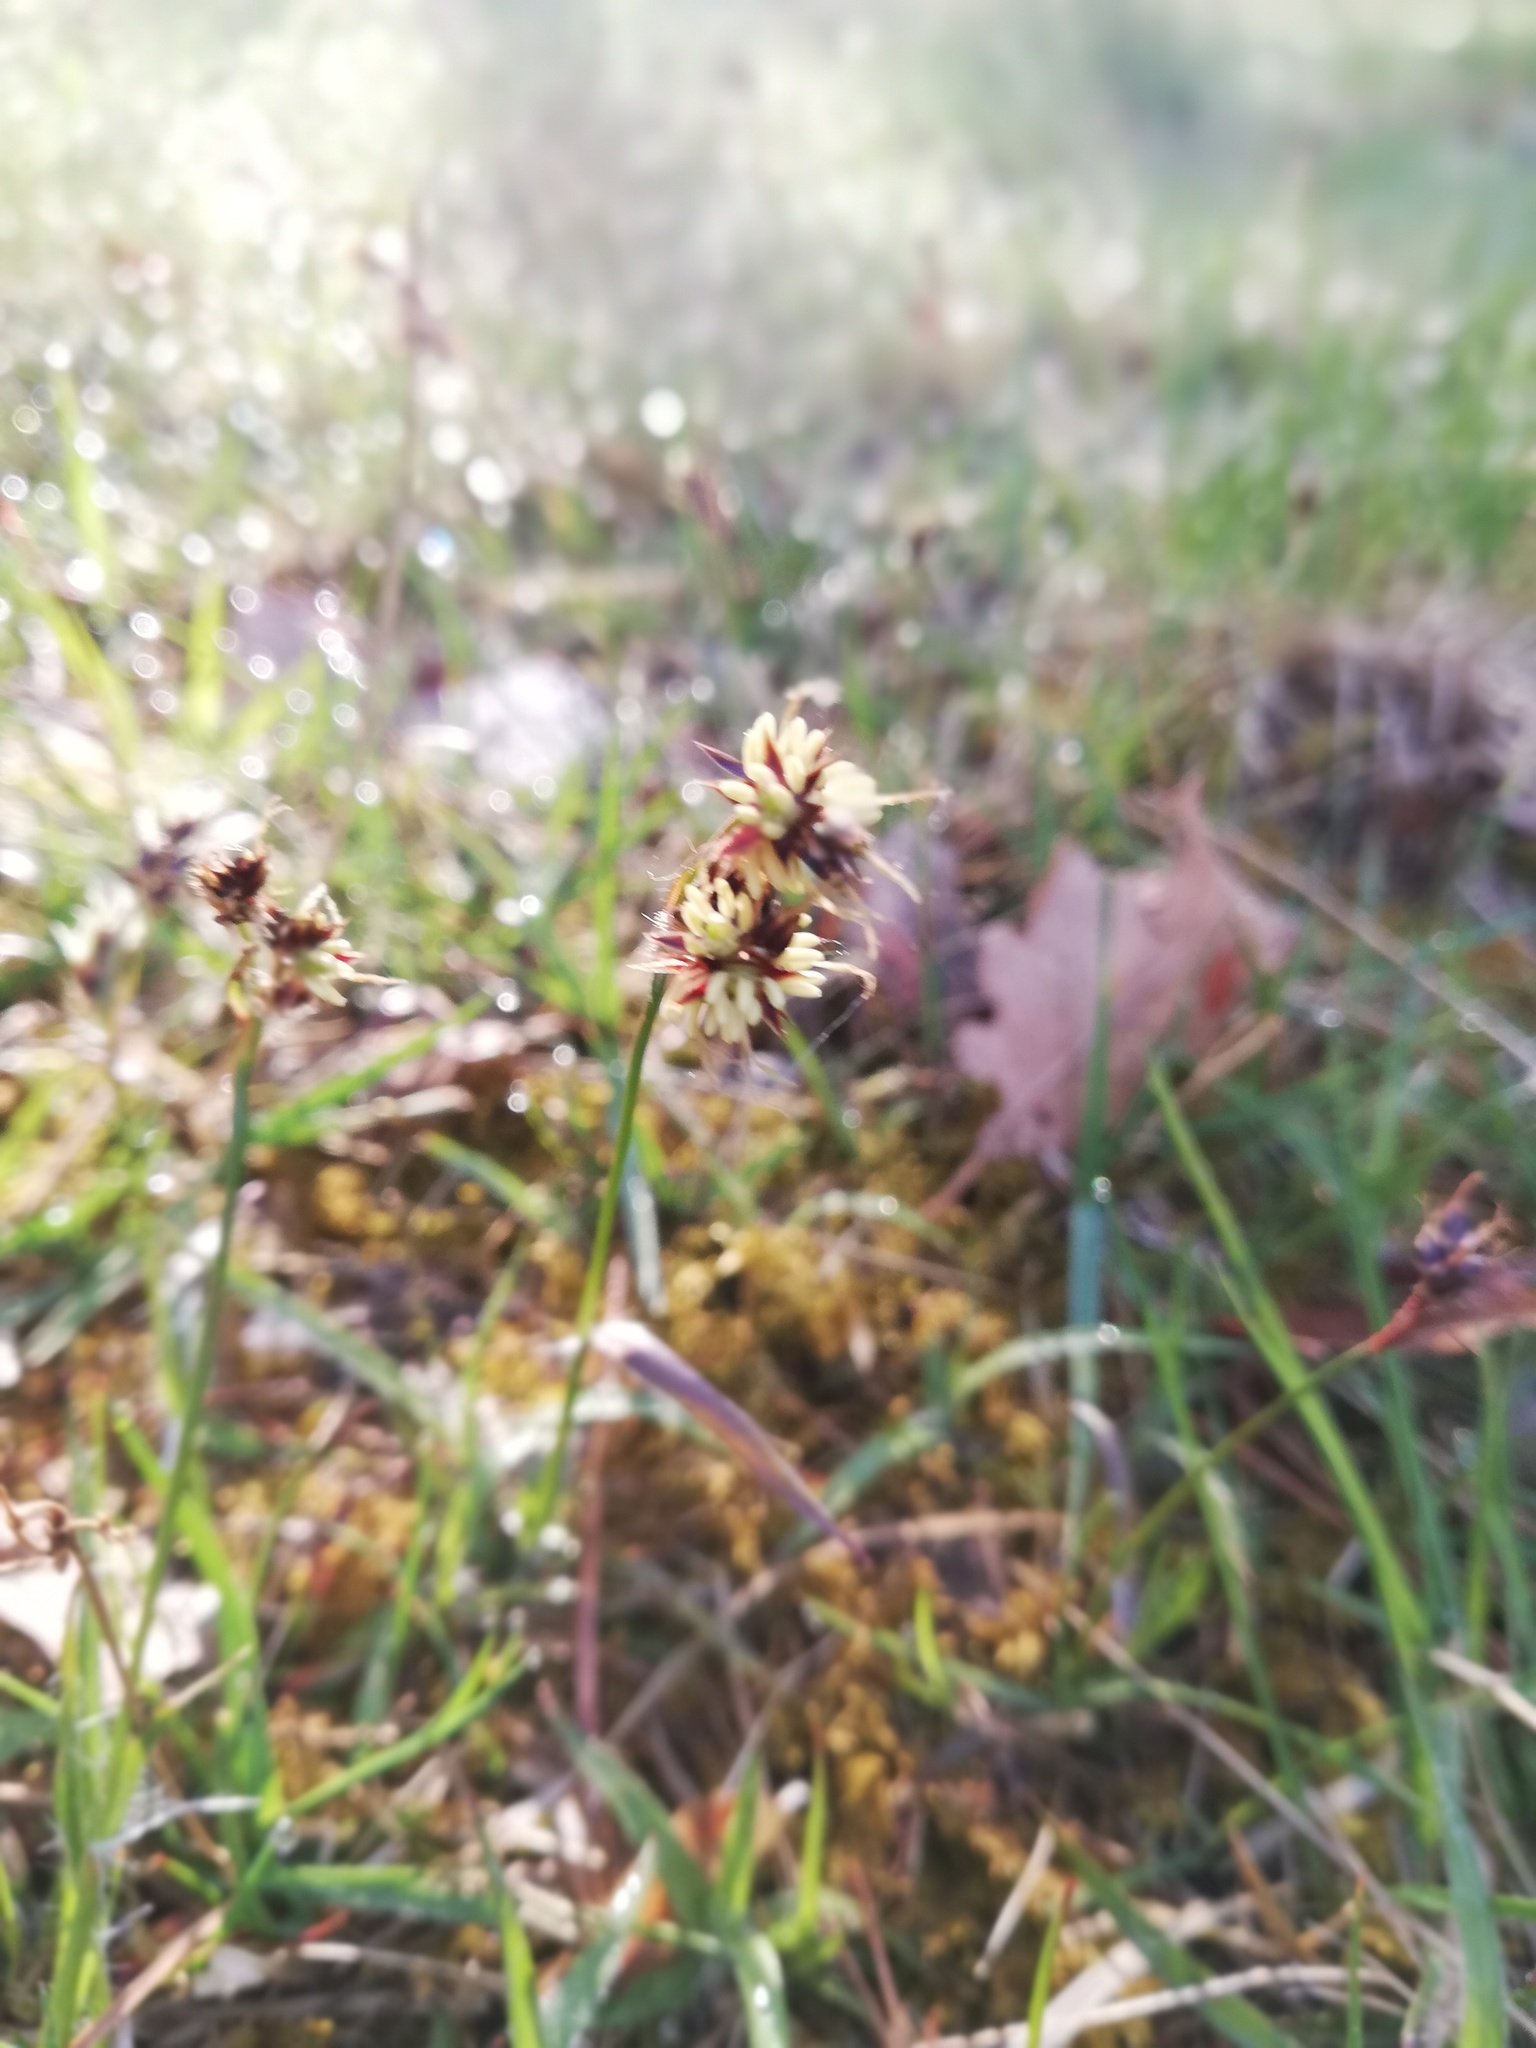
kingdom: Plantae
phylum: Tracheophyta
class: Liliopsida
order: Poales
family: Juncaceae
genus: Luzula
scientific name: Luzula campestris
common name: Field wood-rush
